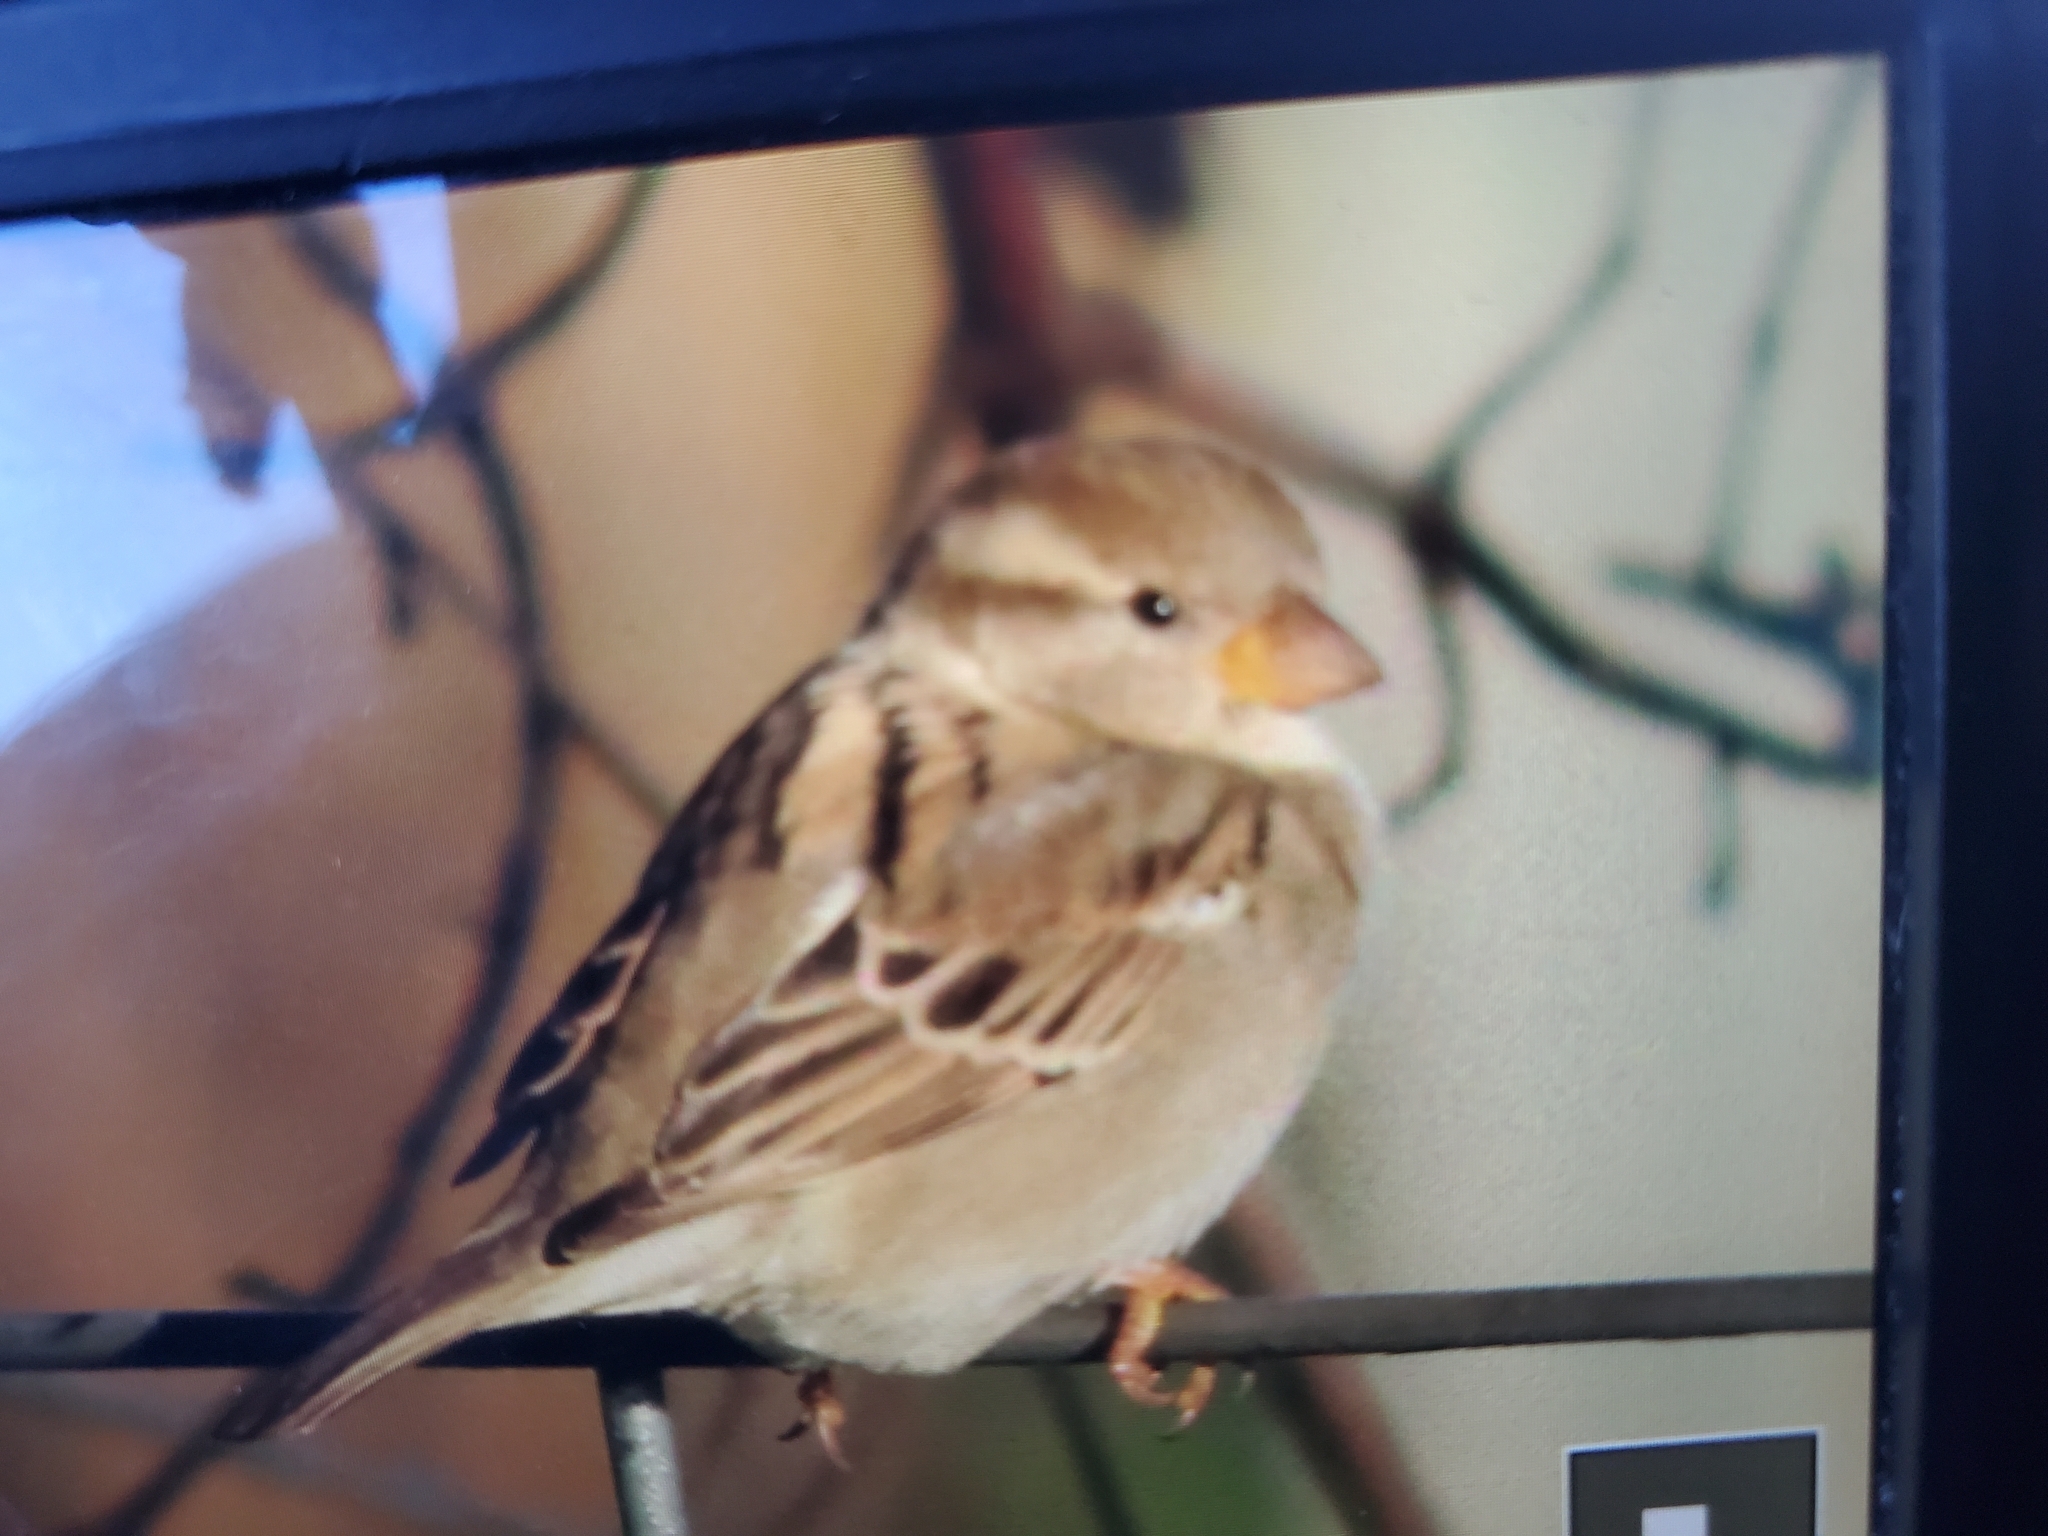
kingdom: Animalia
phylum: Chordata
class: Aves
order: Passeriformes
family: Passeridae
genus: Passer
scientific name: Passer domesticus
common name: House sparrow
